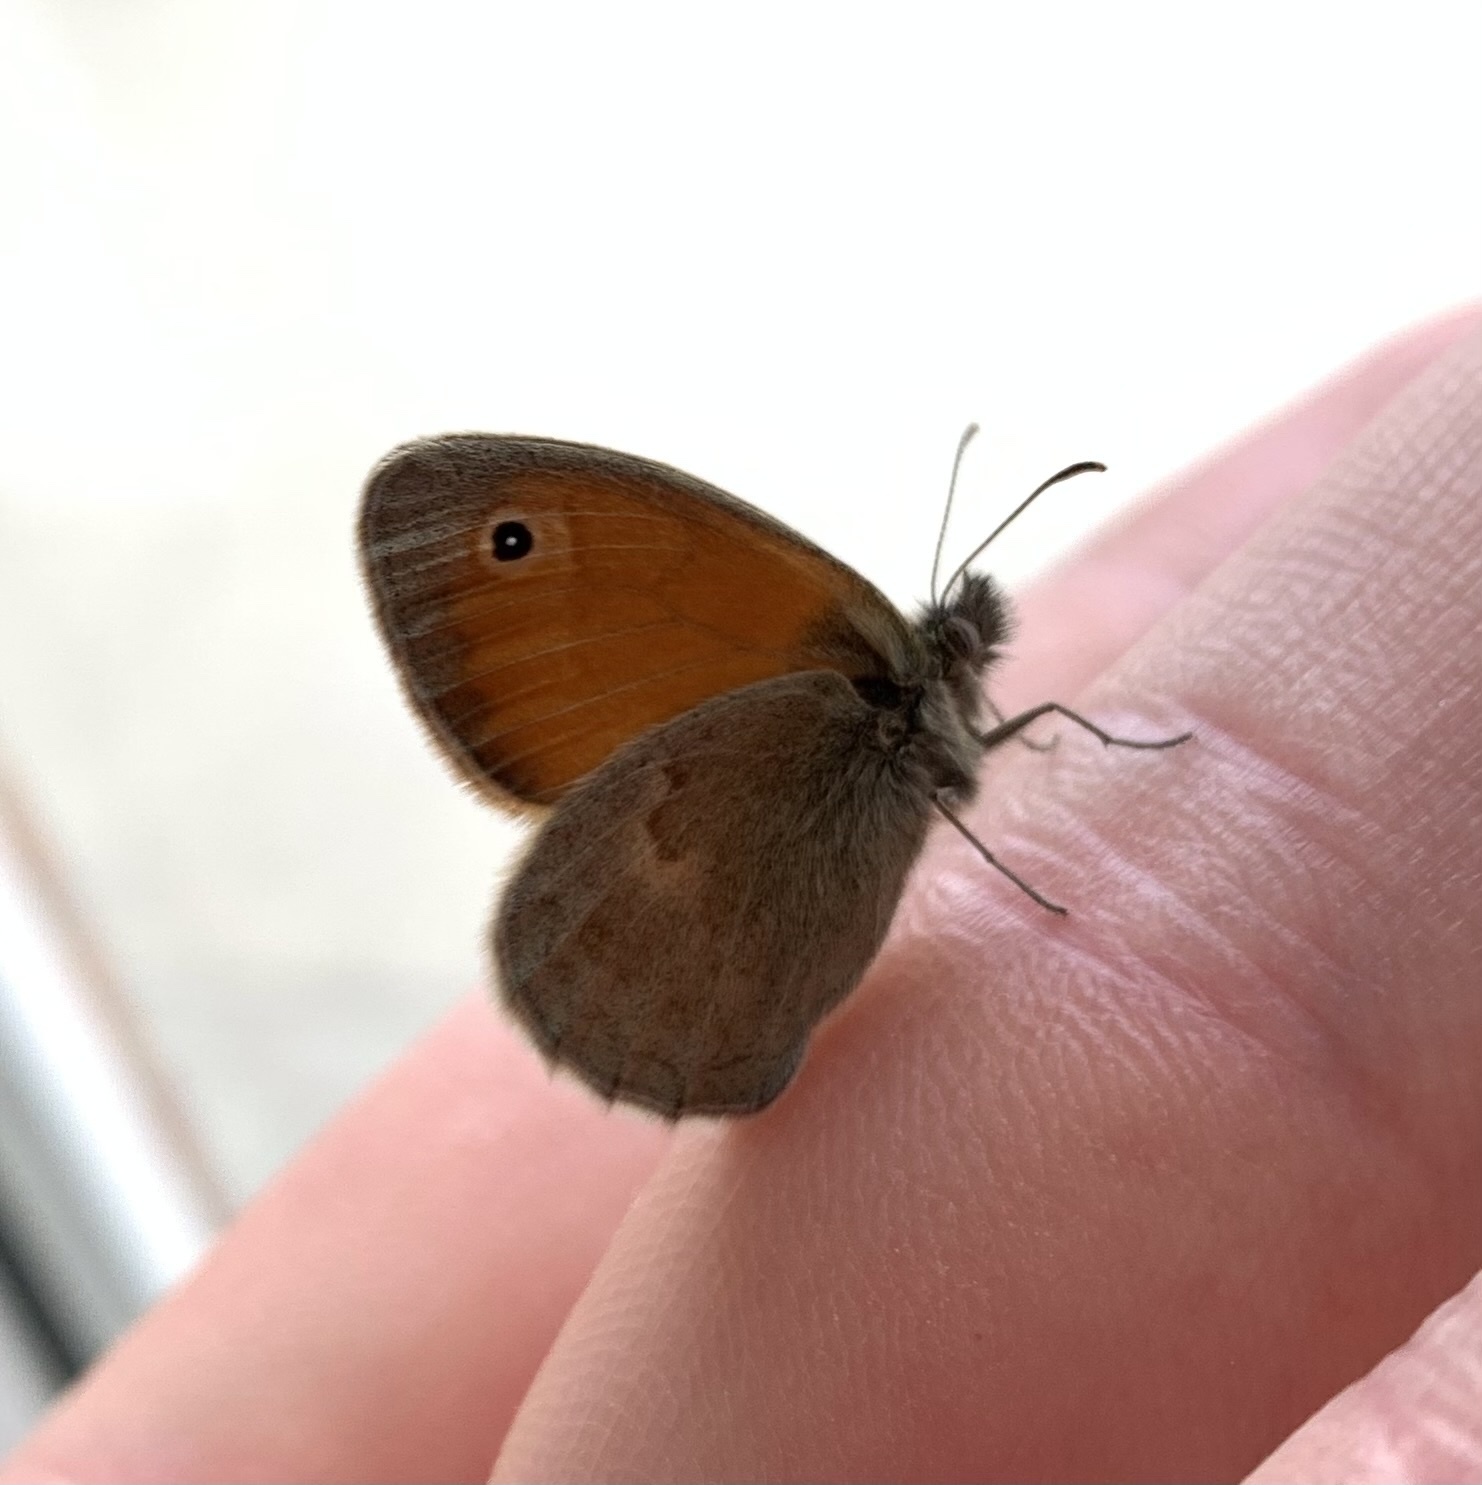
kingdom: Animalia
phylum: Arthropoda
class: Insecta
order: Lepidoptera
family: Nymphalidae
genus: Coenonympha
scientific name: Coenonympha pamphilus
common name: Small heath
